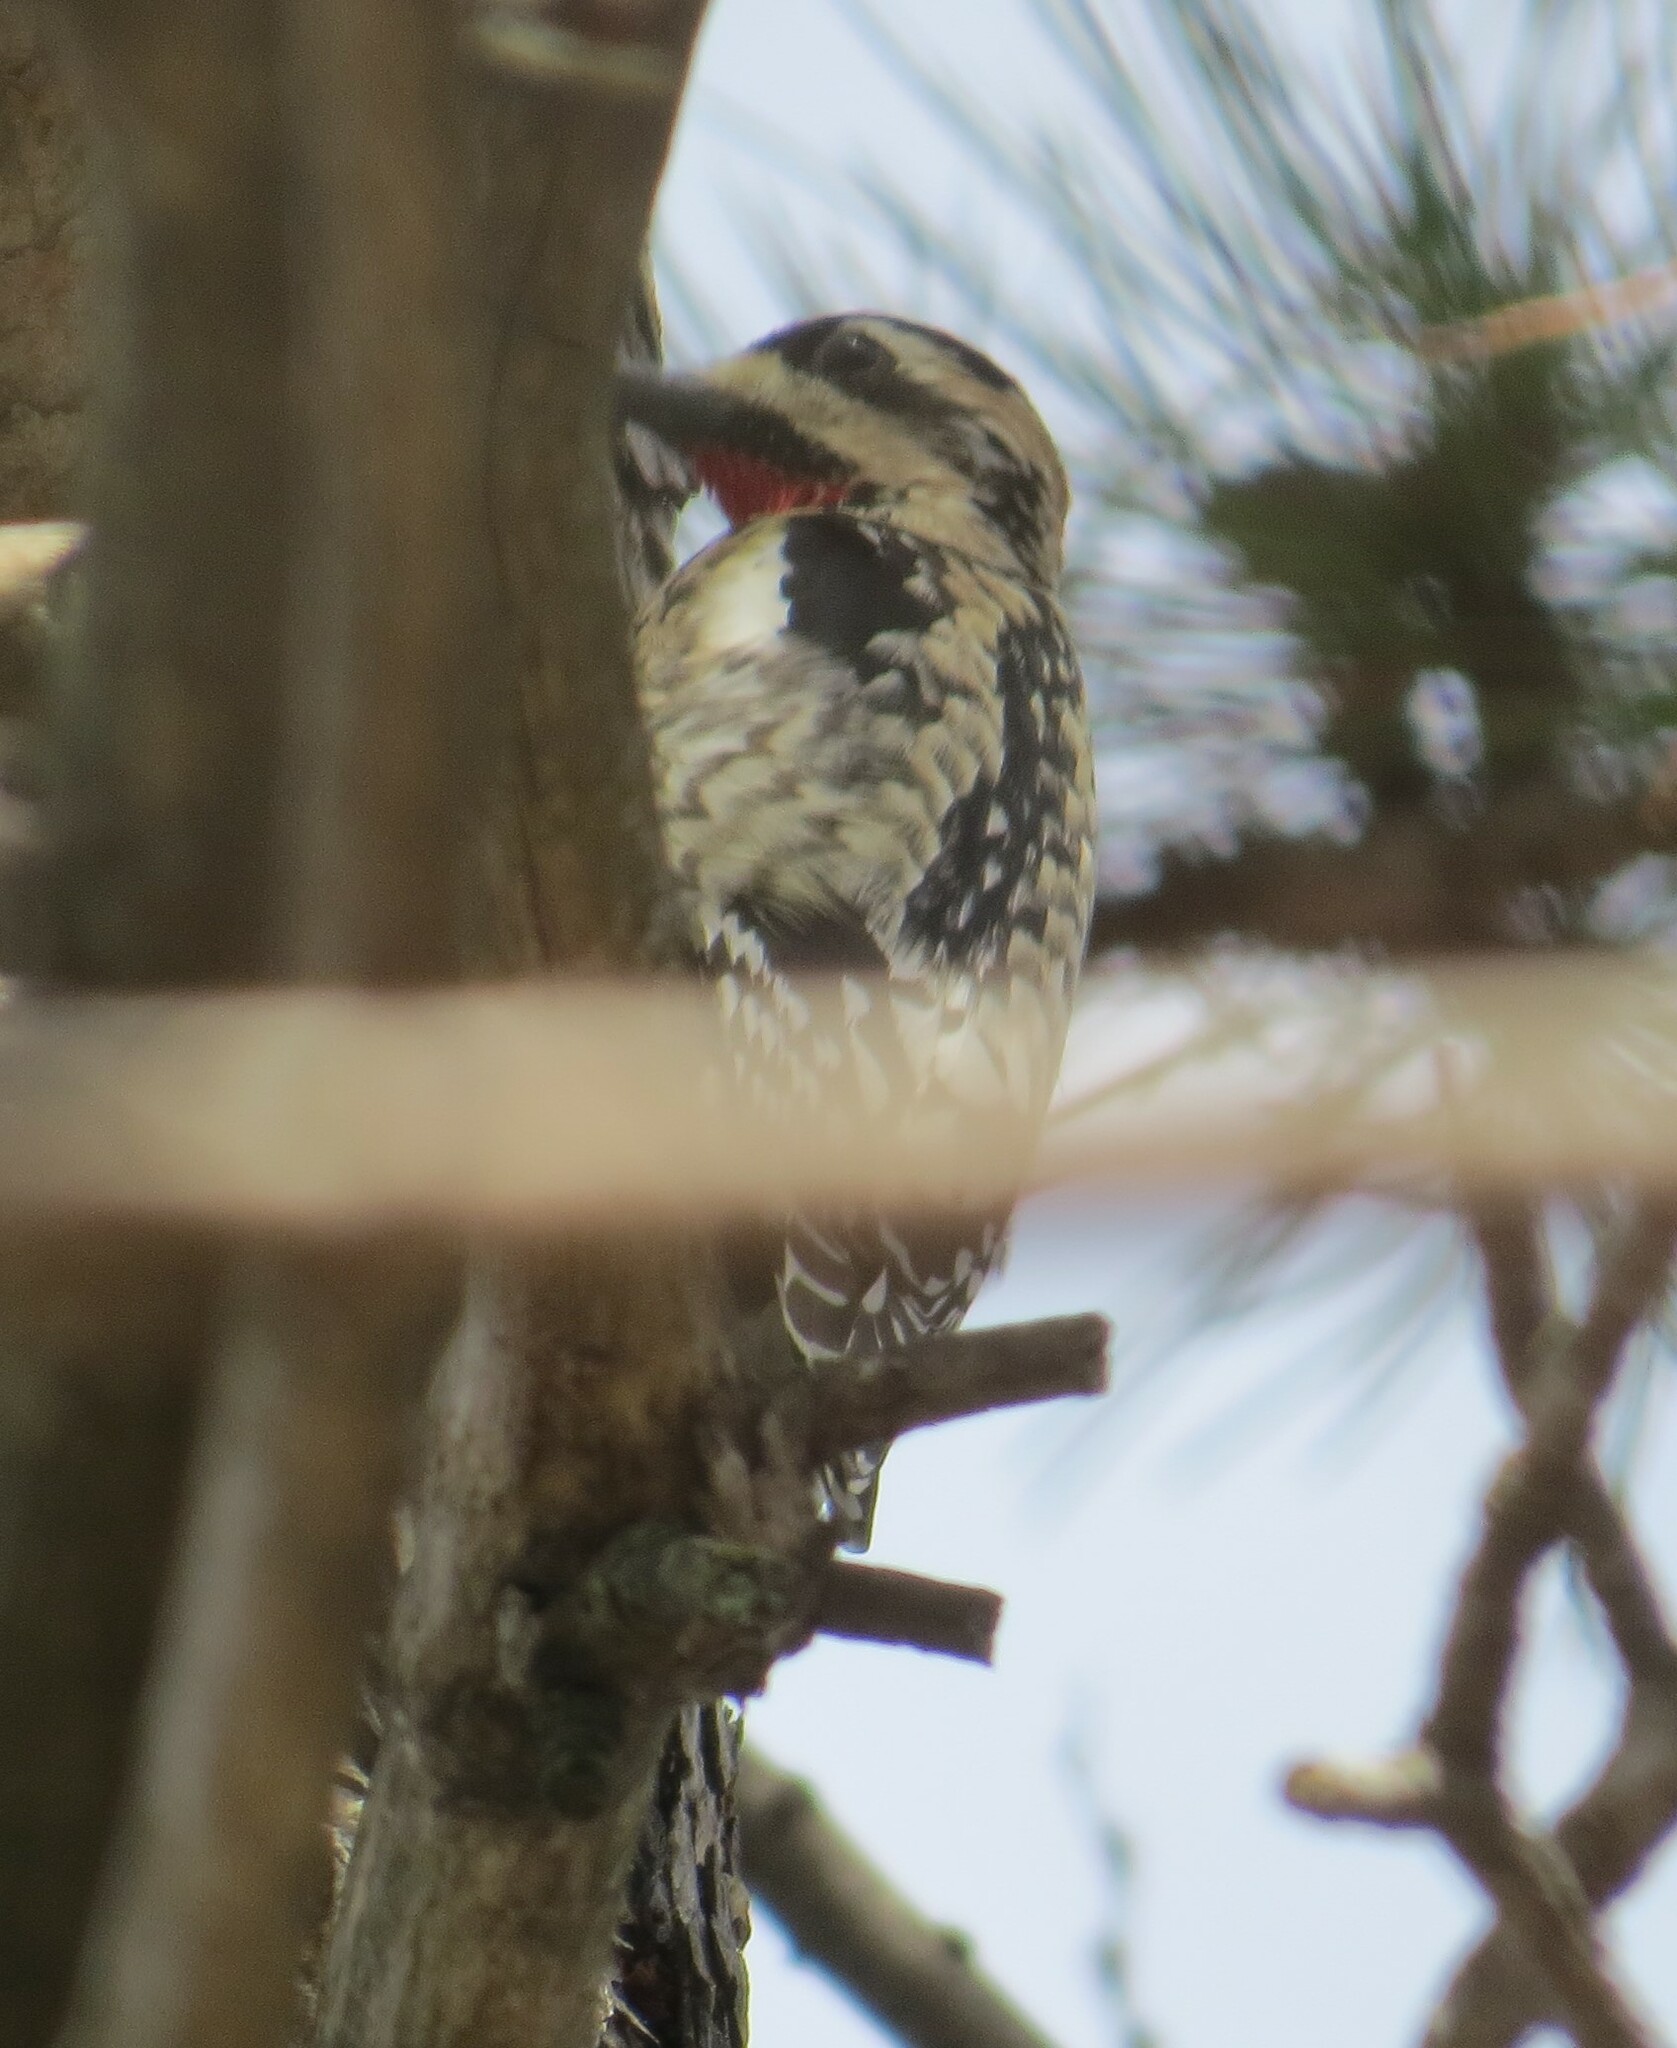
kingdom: Animalia
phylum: Chordata
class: Aves
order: Piciformes
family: Picidae
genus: Sphyrapicus
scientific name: Sphyrapicus varius
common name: Yellow-bellied sapsucker
